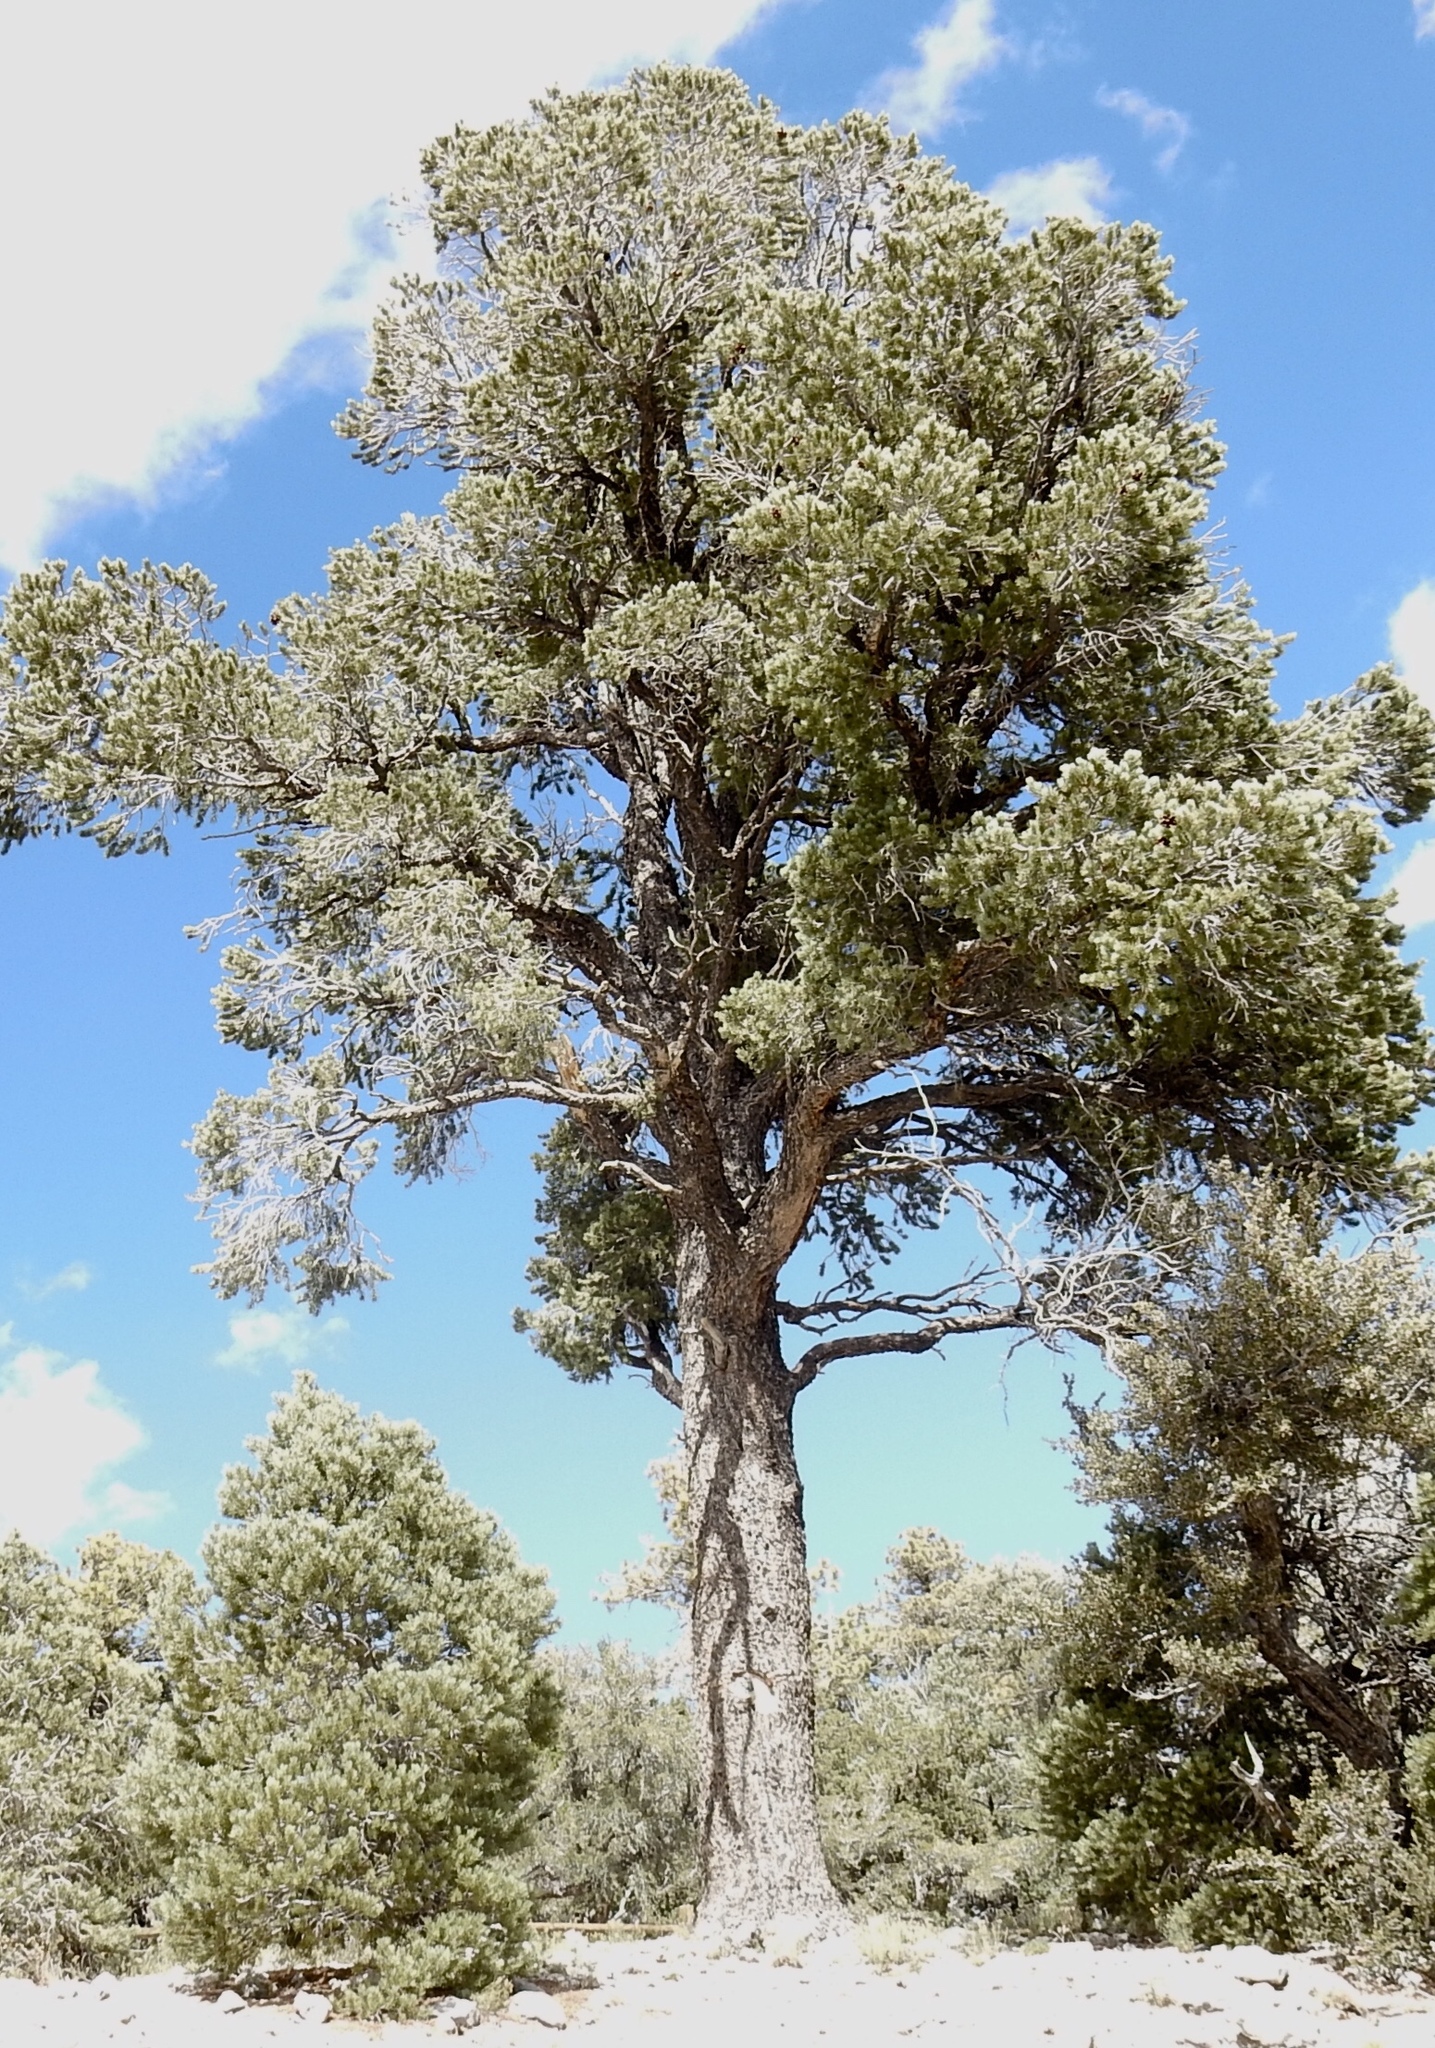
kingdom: Plantae
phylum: Tracheophyta
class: Pinopsida
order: Pinales
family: Pinaceae
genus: Pinus
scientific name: Pinus monophylla
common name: One-leaved nut pine
